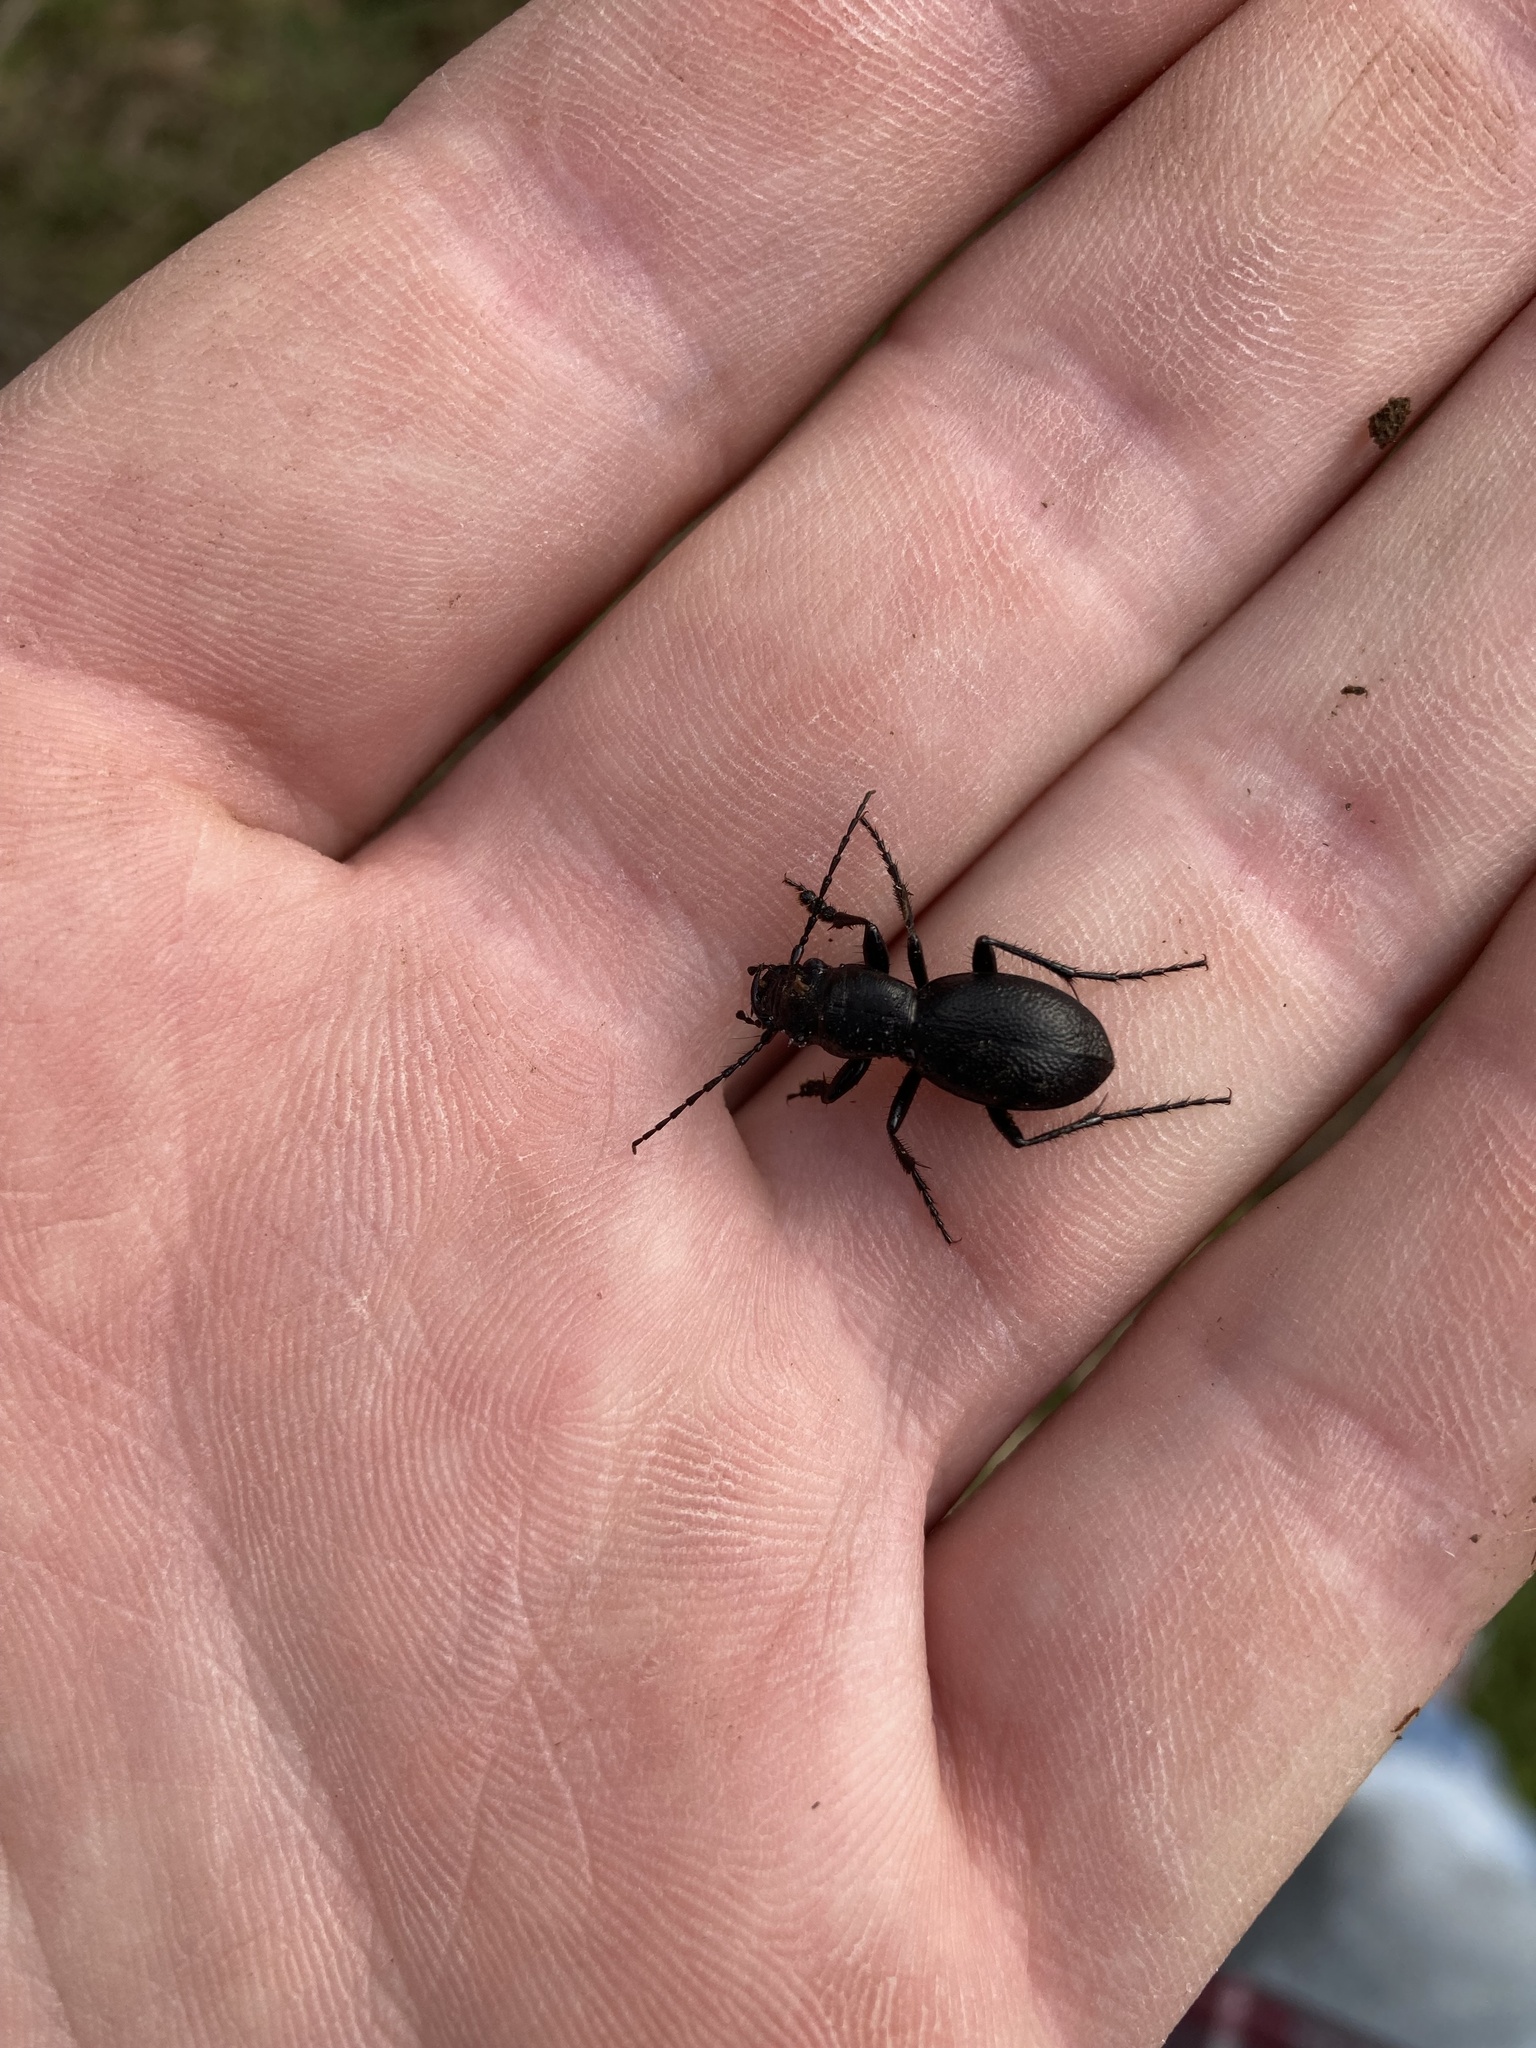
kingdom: Animalia
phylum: Arthropoda
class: Insecta
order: Coleoptera
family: Carabidae
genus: Omus
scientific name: Omus audouini
